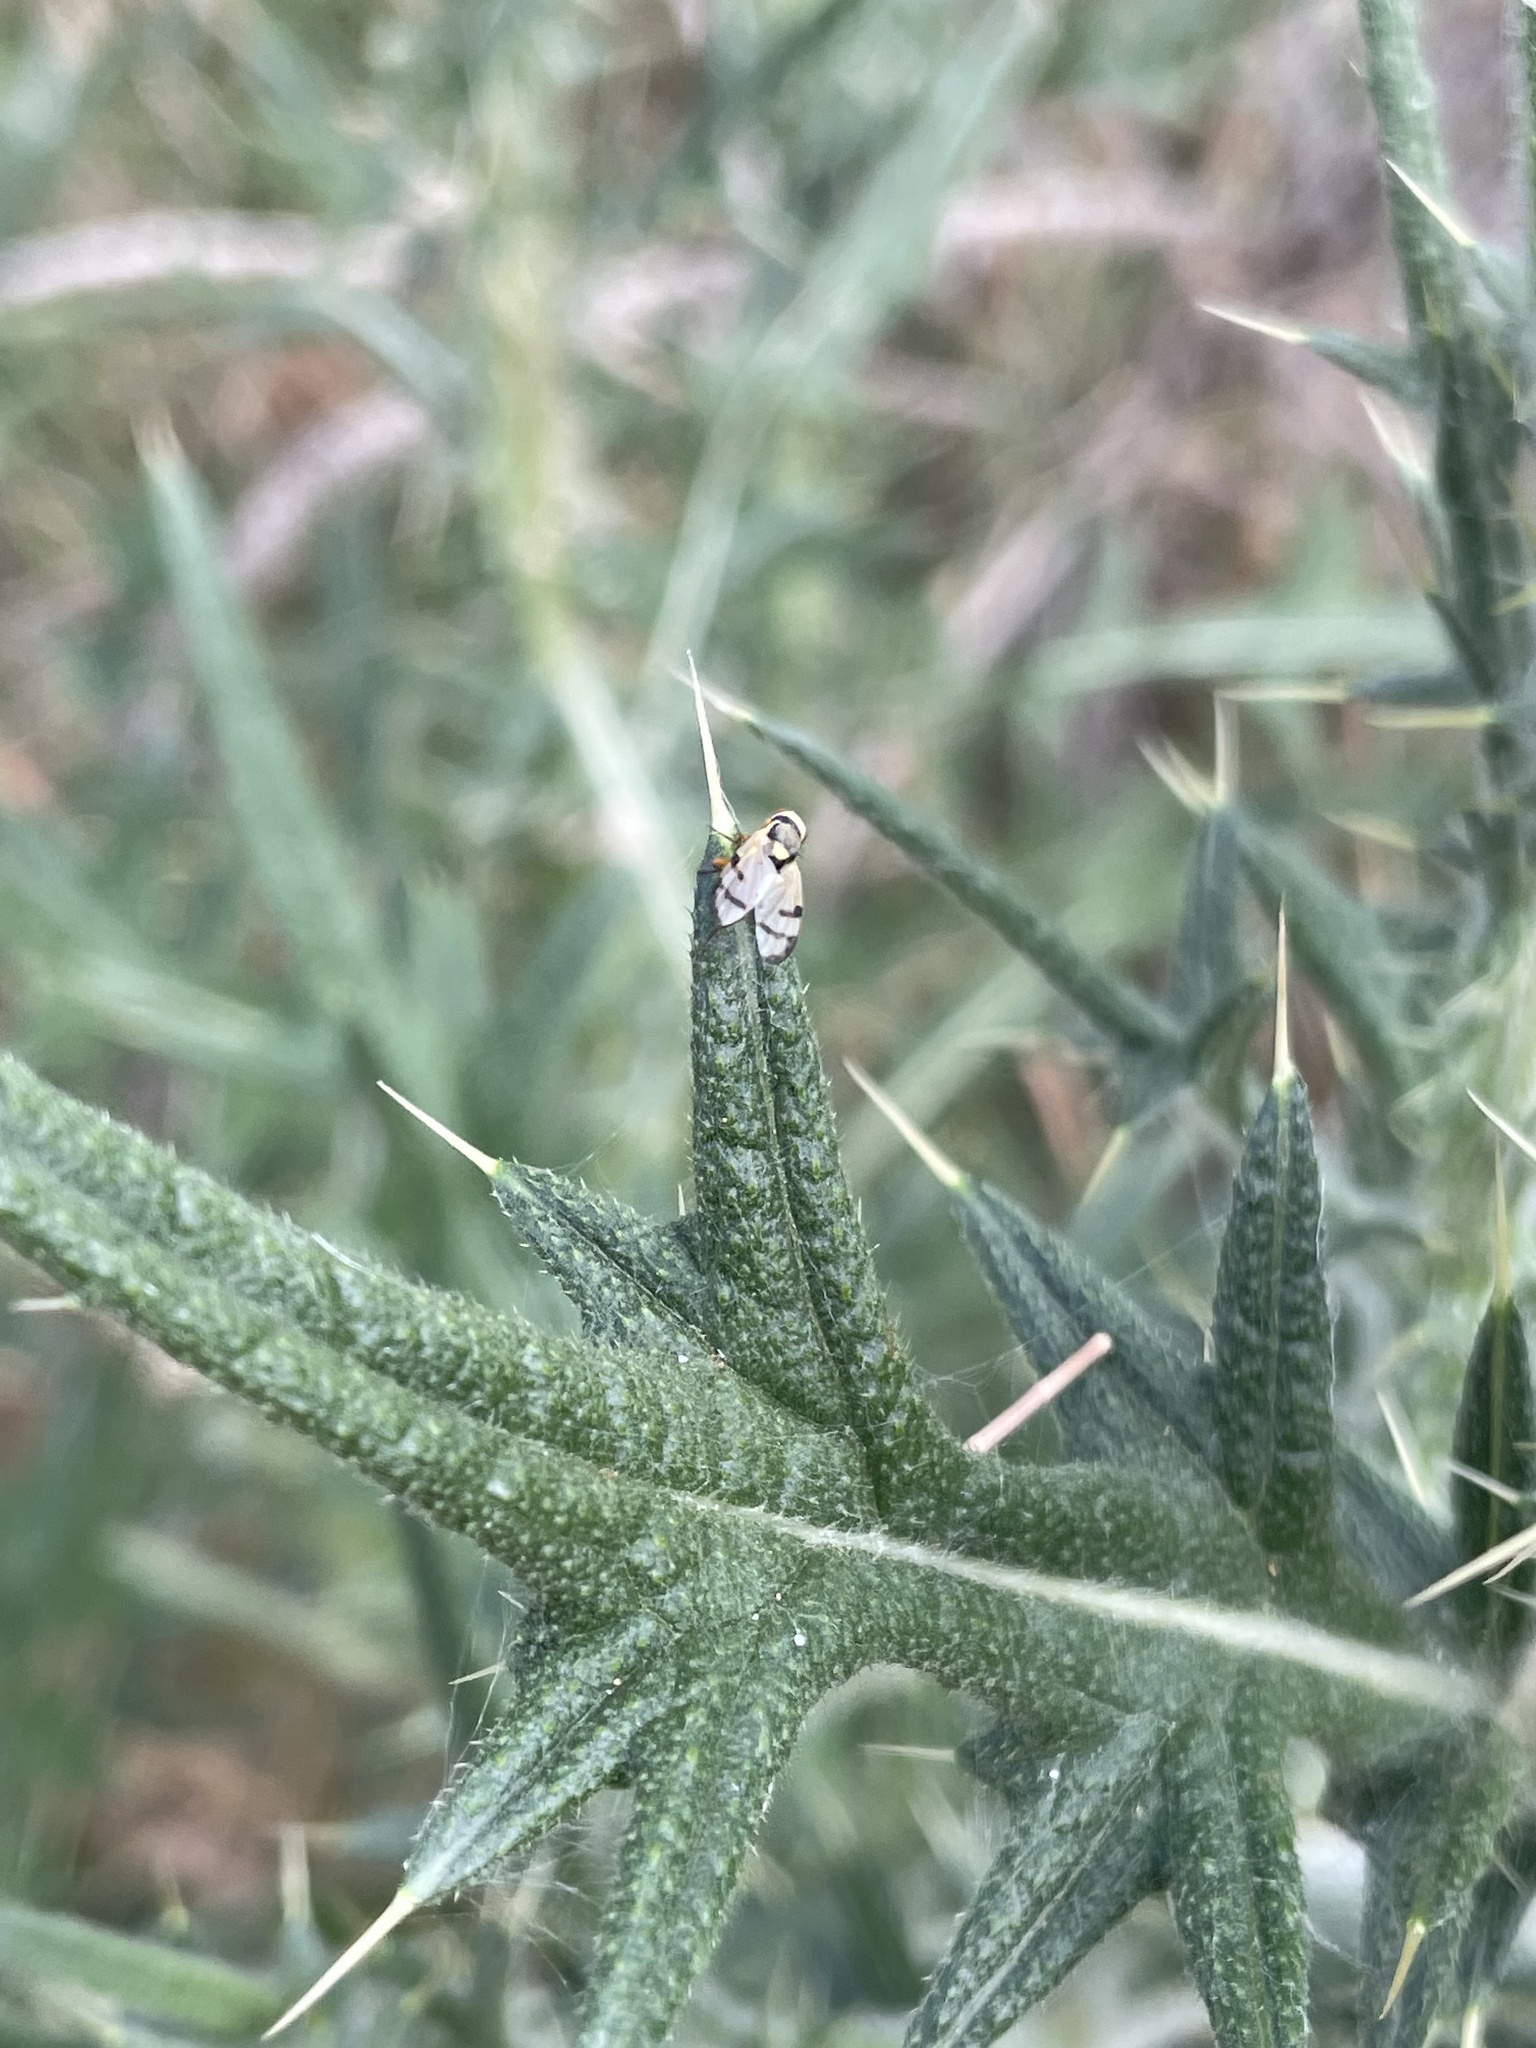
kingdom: Animalia
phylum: Arthropoda
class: Insecta
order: Diptera
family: Tephritidae
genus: Urophora
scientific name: Urophora stylata
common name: Fruit fly
